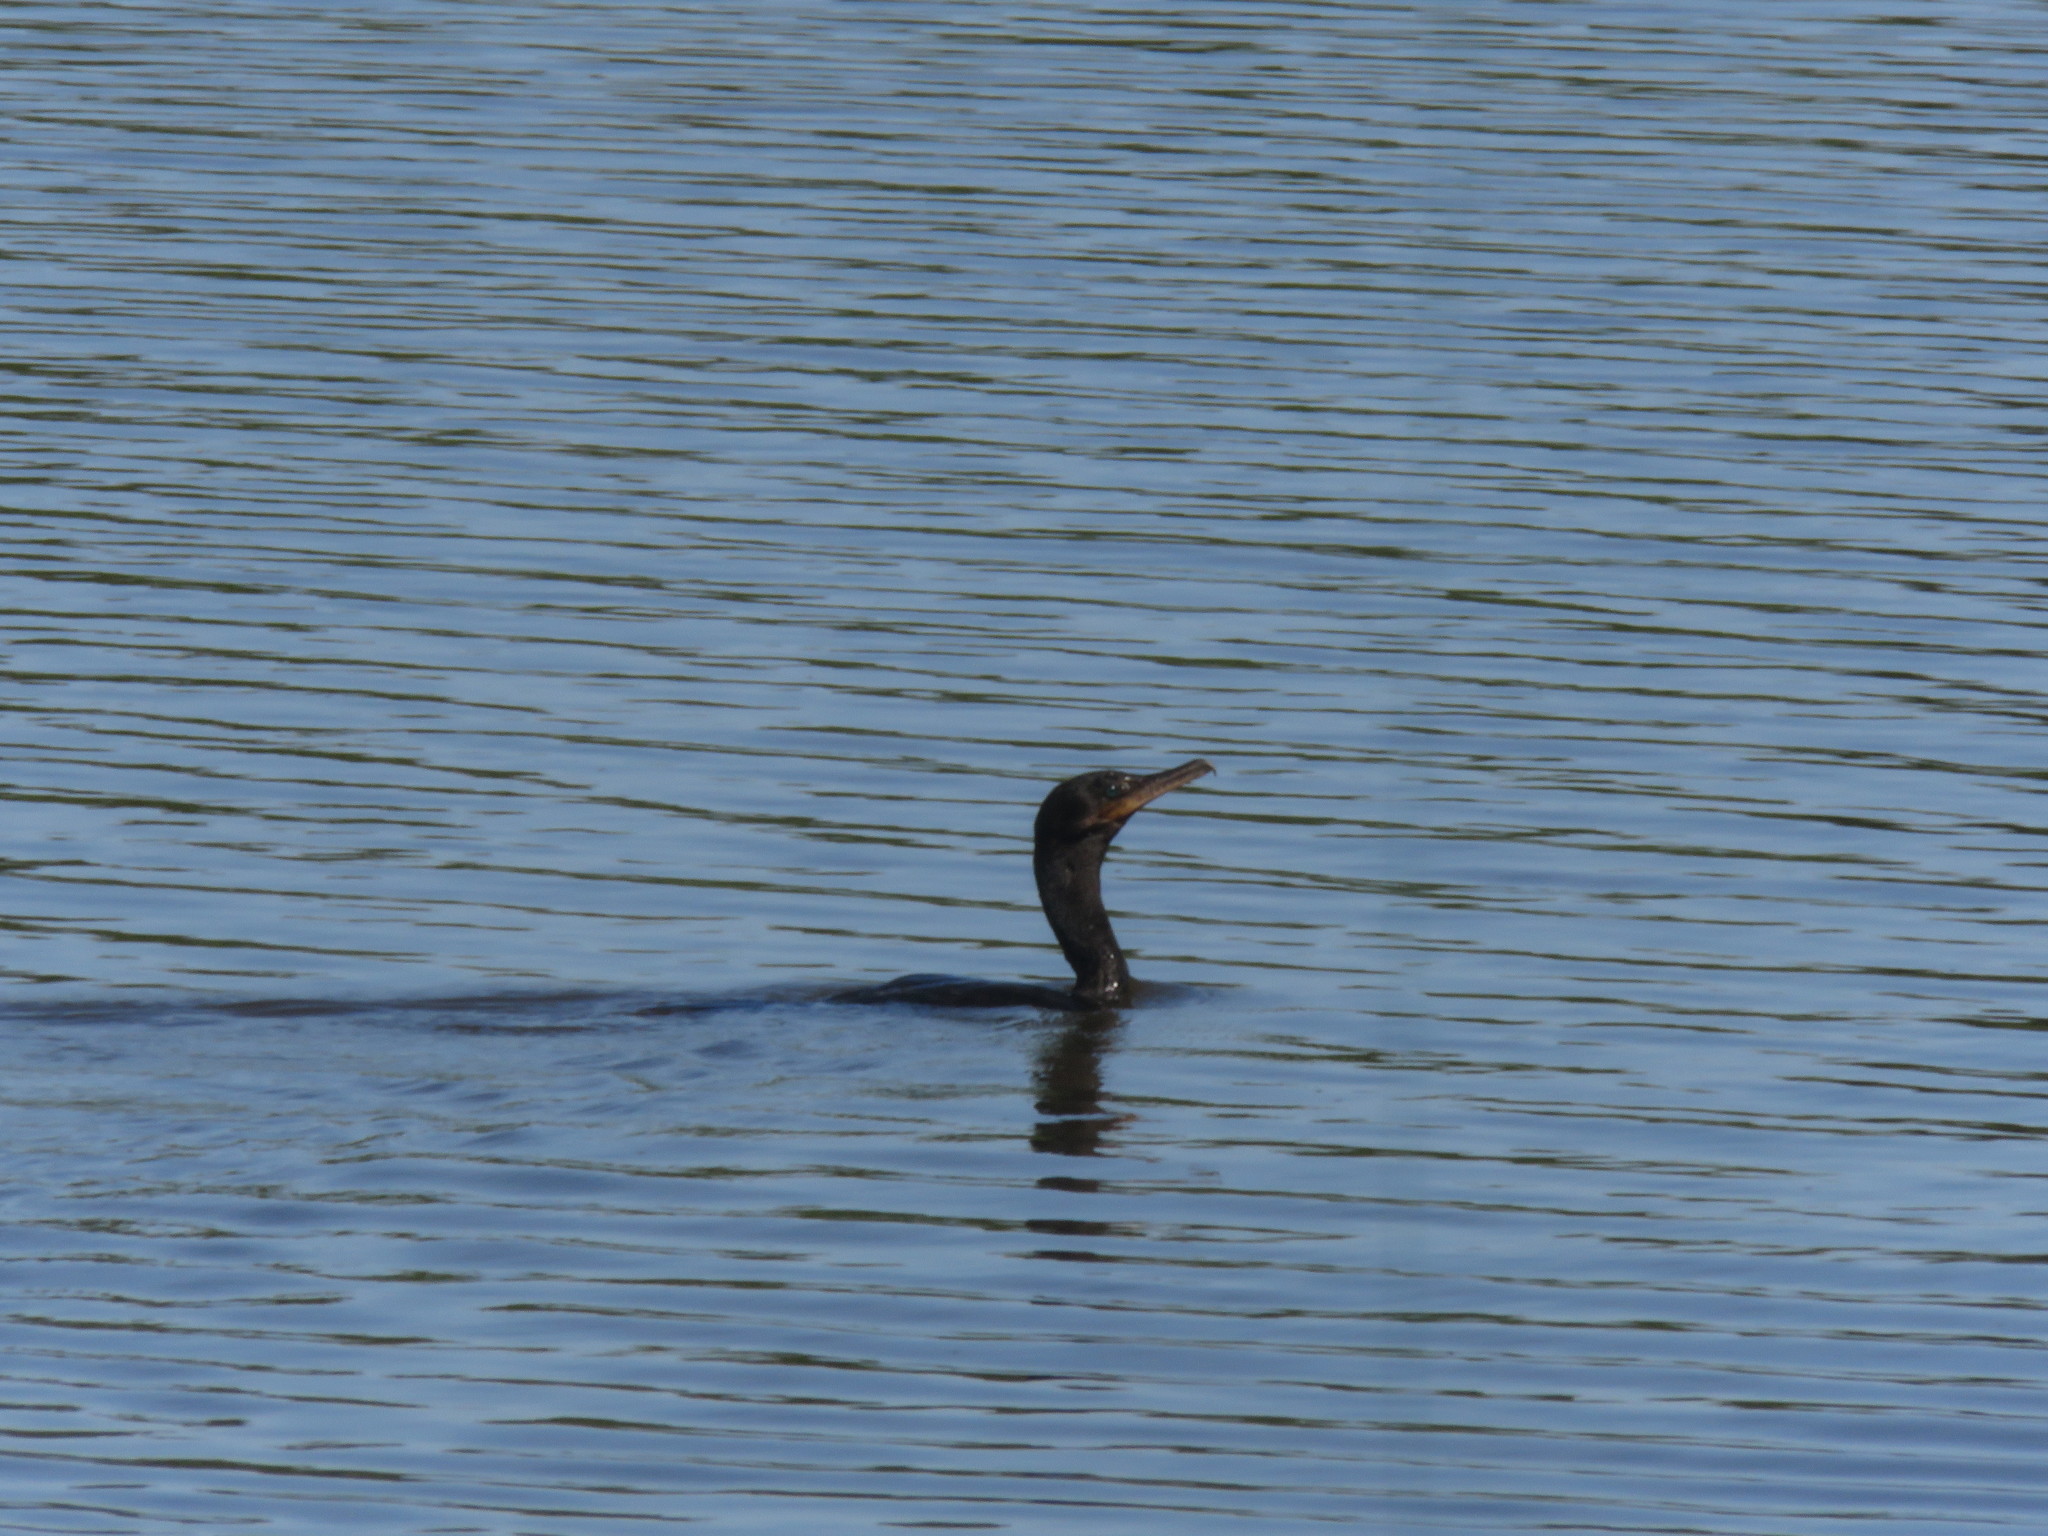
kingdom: Animalia
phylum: Chordata
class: Aves
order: Suliformes
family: Phalacrocoracidae
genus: Phalacrocorax
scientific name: Phalacrocorax brasilianus
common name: Neotropic cormorant
